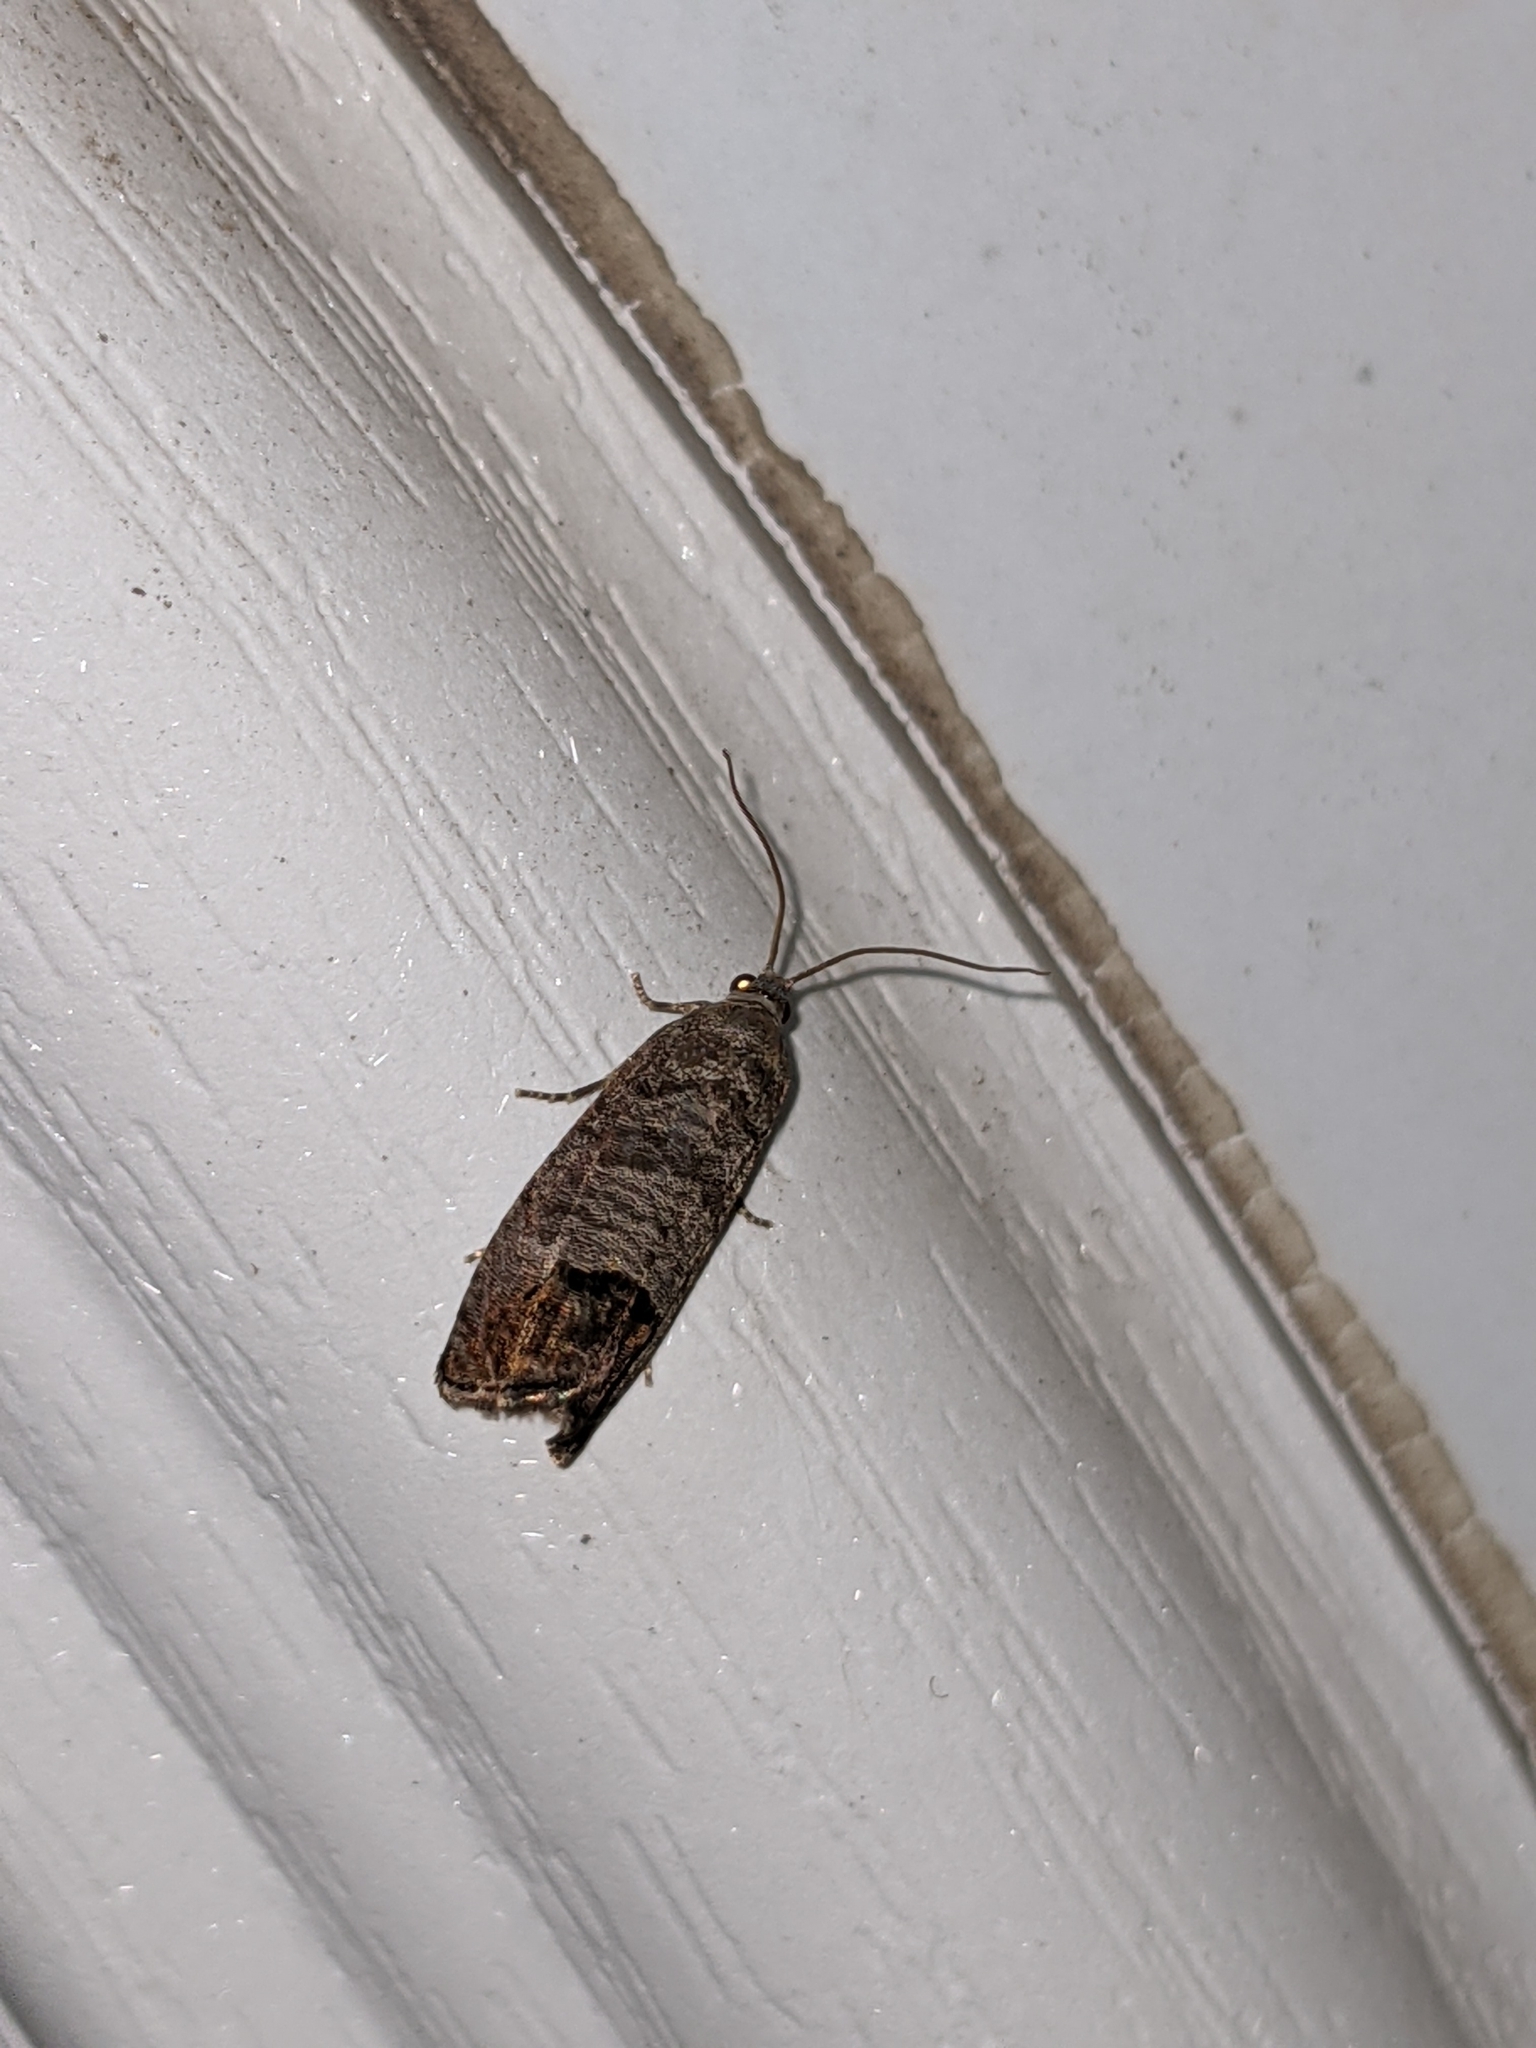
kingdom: Animalia
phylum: Arthropoda
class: Insecta
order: Lepidoptera
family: Tortricidae
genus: Cydia
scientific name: Cydia pomonella
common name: Codling moth
